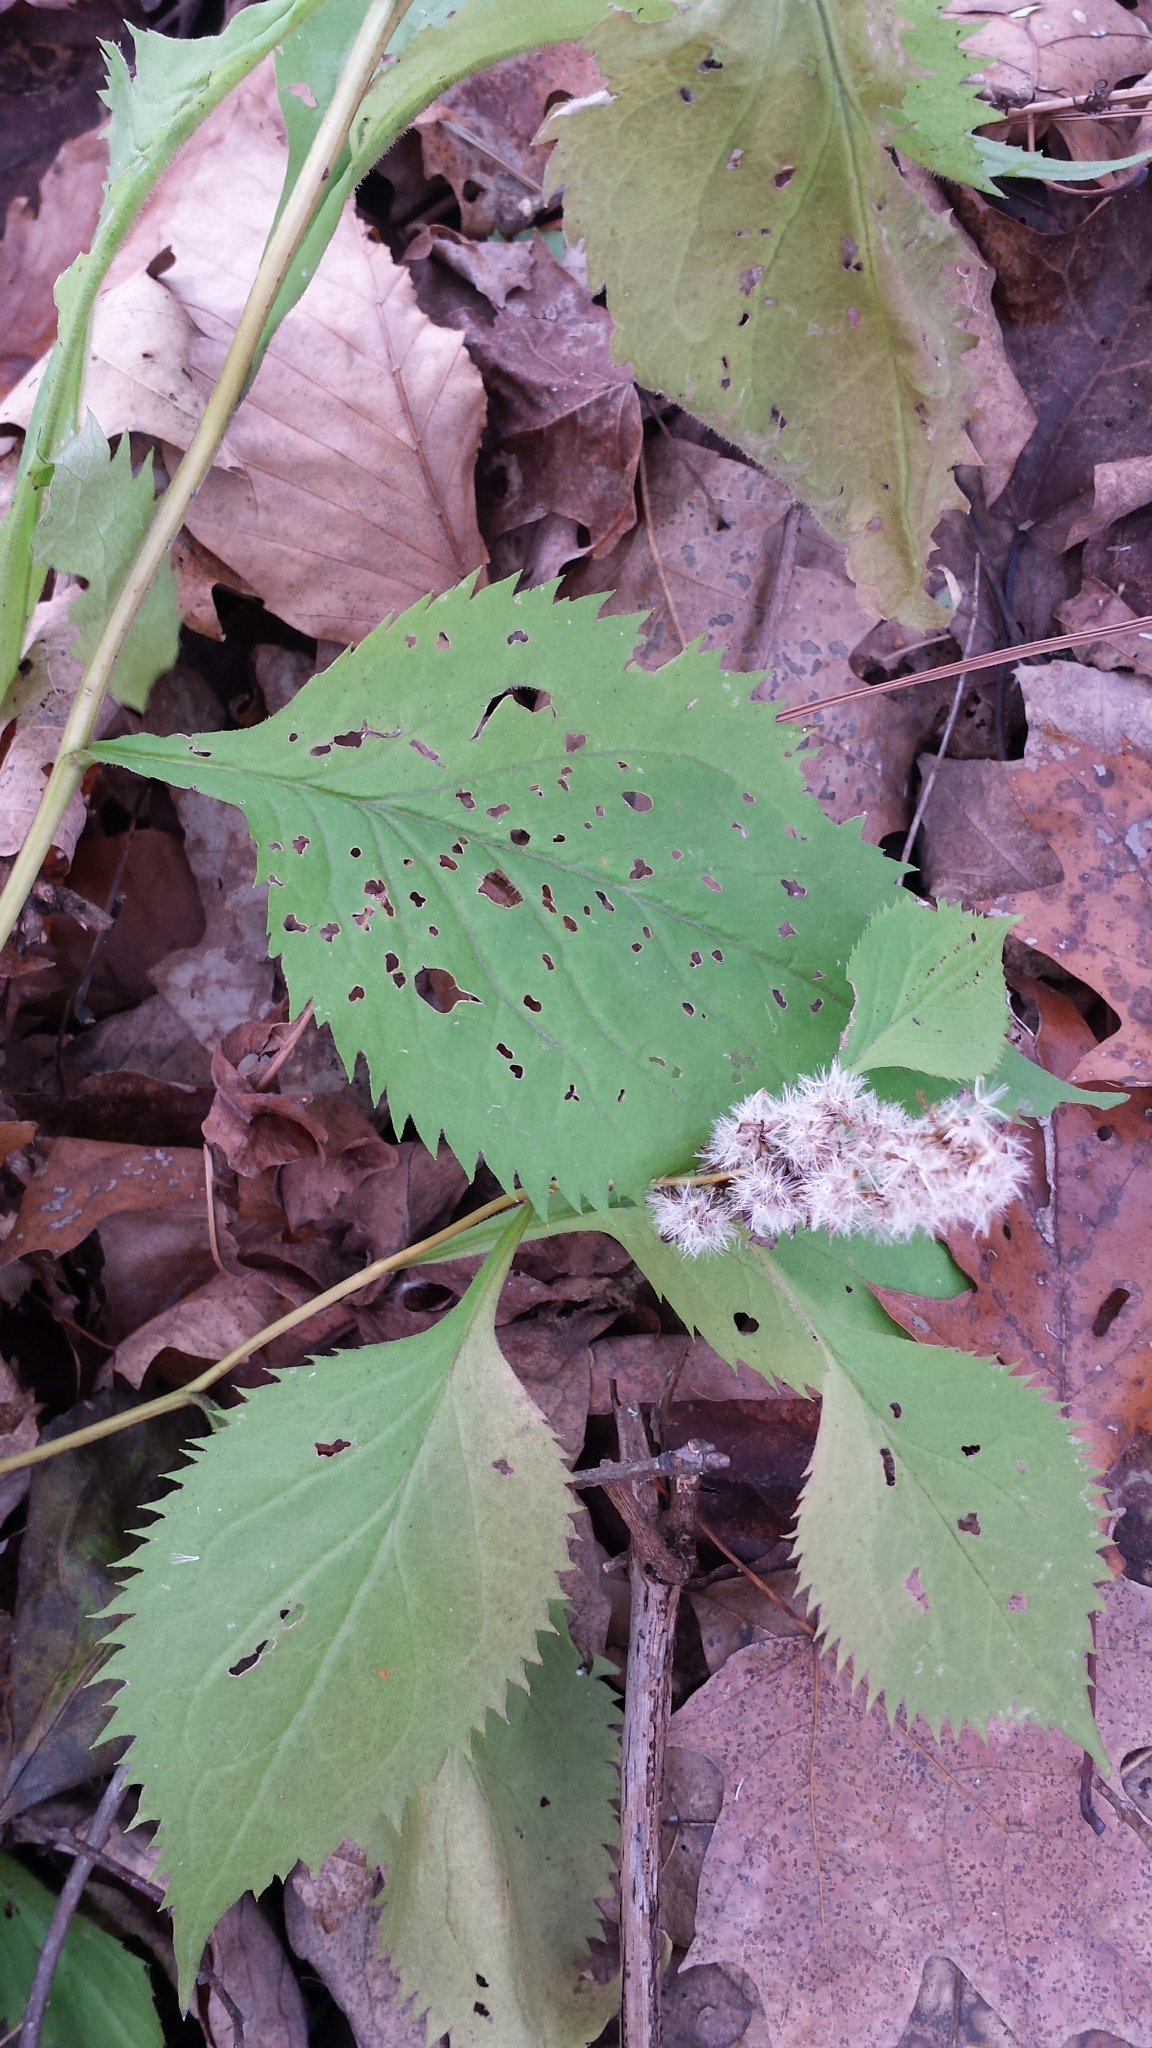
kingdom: Plantae
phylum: Tracheophyta
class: Magnoliopsida
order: Asterales
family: Asteraceae
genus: Solidago
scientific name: Solidago flexicaulis
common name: Zig-zag goldenrod
